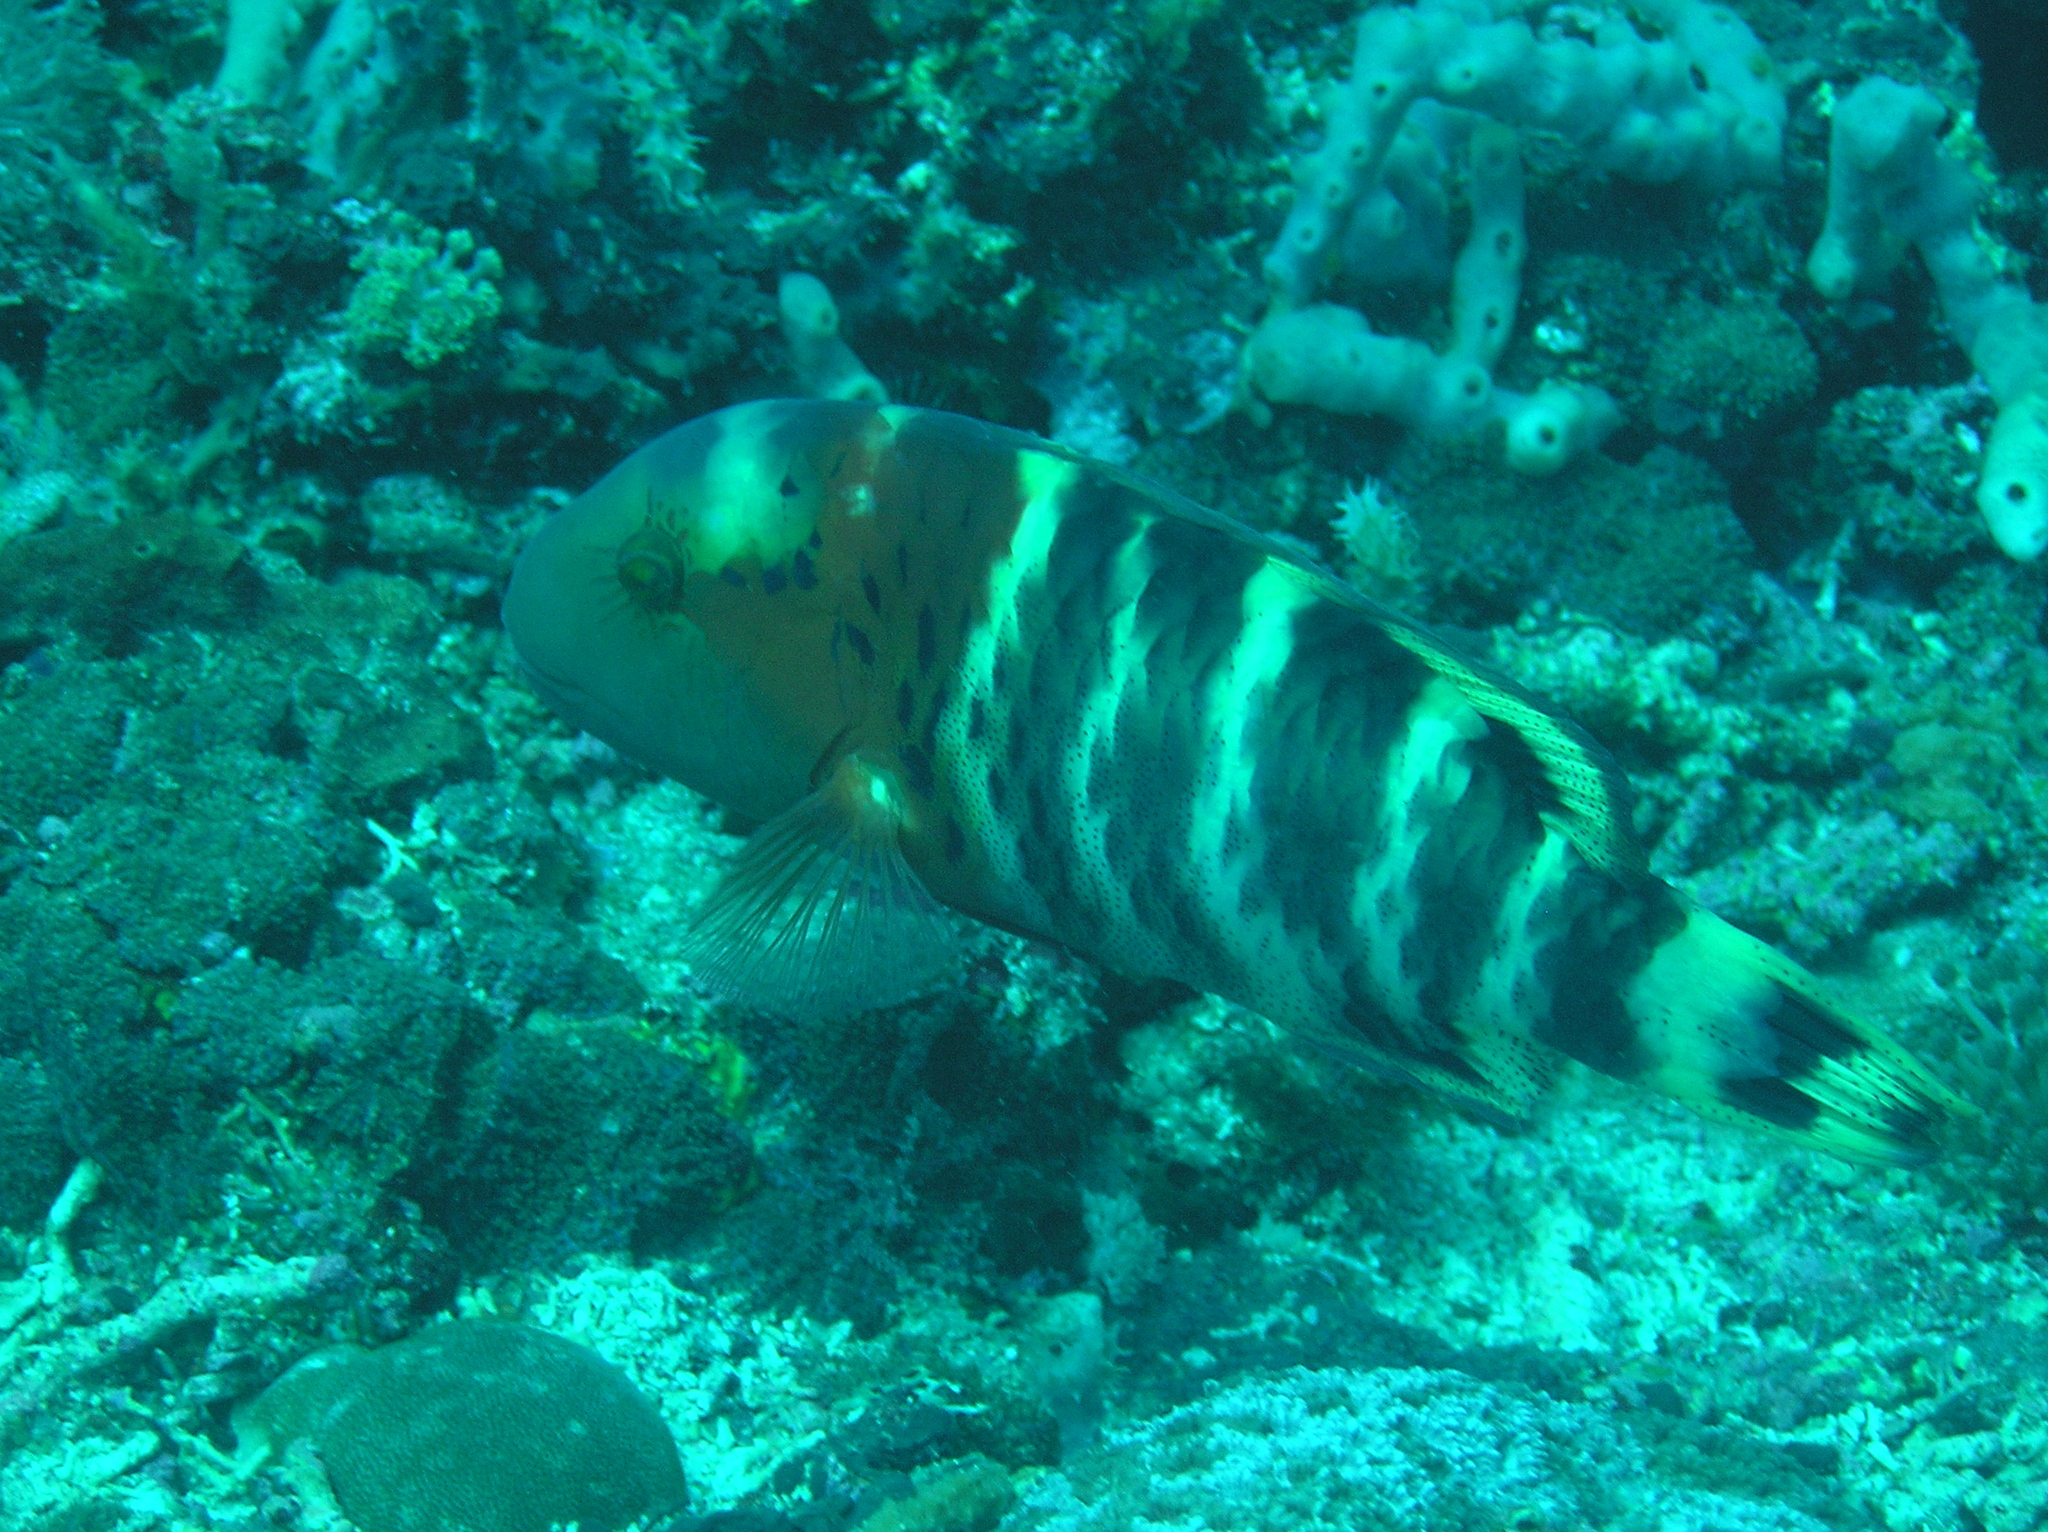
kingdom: Animalia
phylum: Chordata
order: Perciformes
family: Labridae
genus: Cheilinus
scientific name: Cheilinus fasciatus
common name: Red-breasted wrasse
